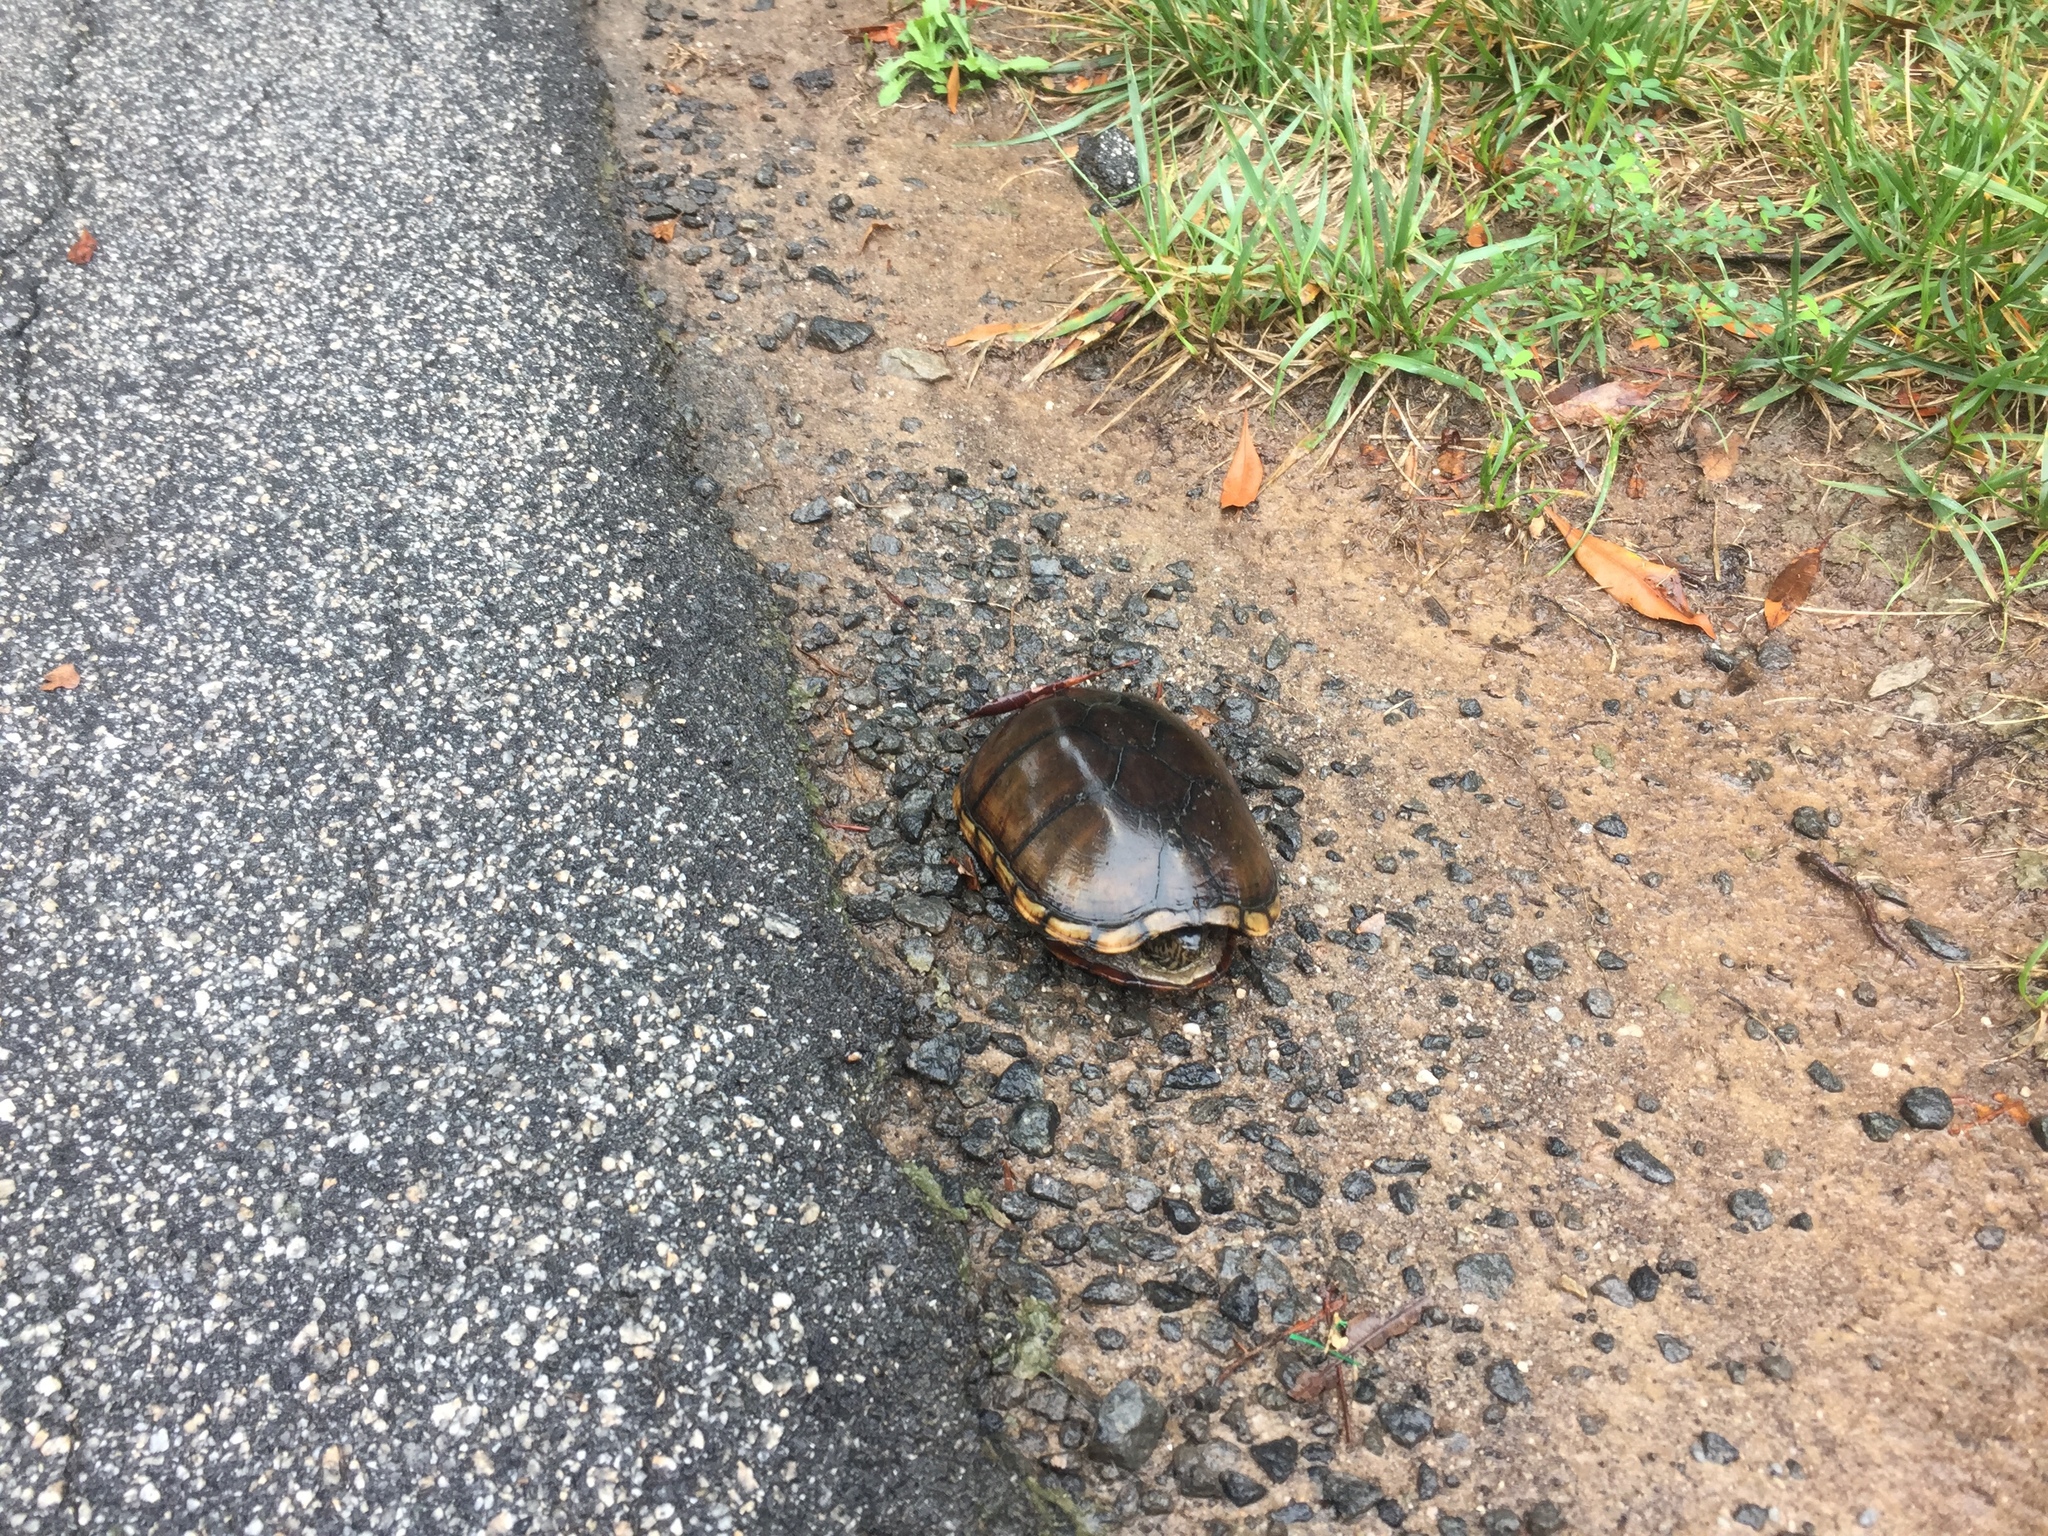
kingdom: Animalia
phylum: Chordata
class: Testudines
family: Kinosternidae
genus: Kinosternon
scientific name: Kinosternon subrubrum
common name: Eastern mud turtle
